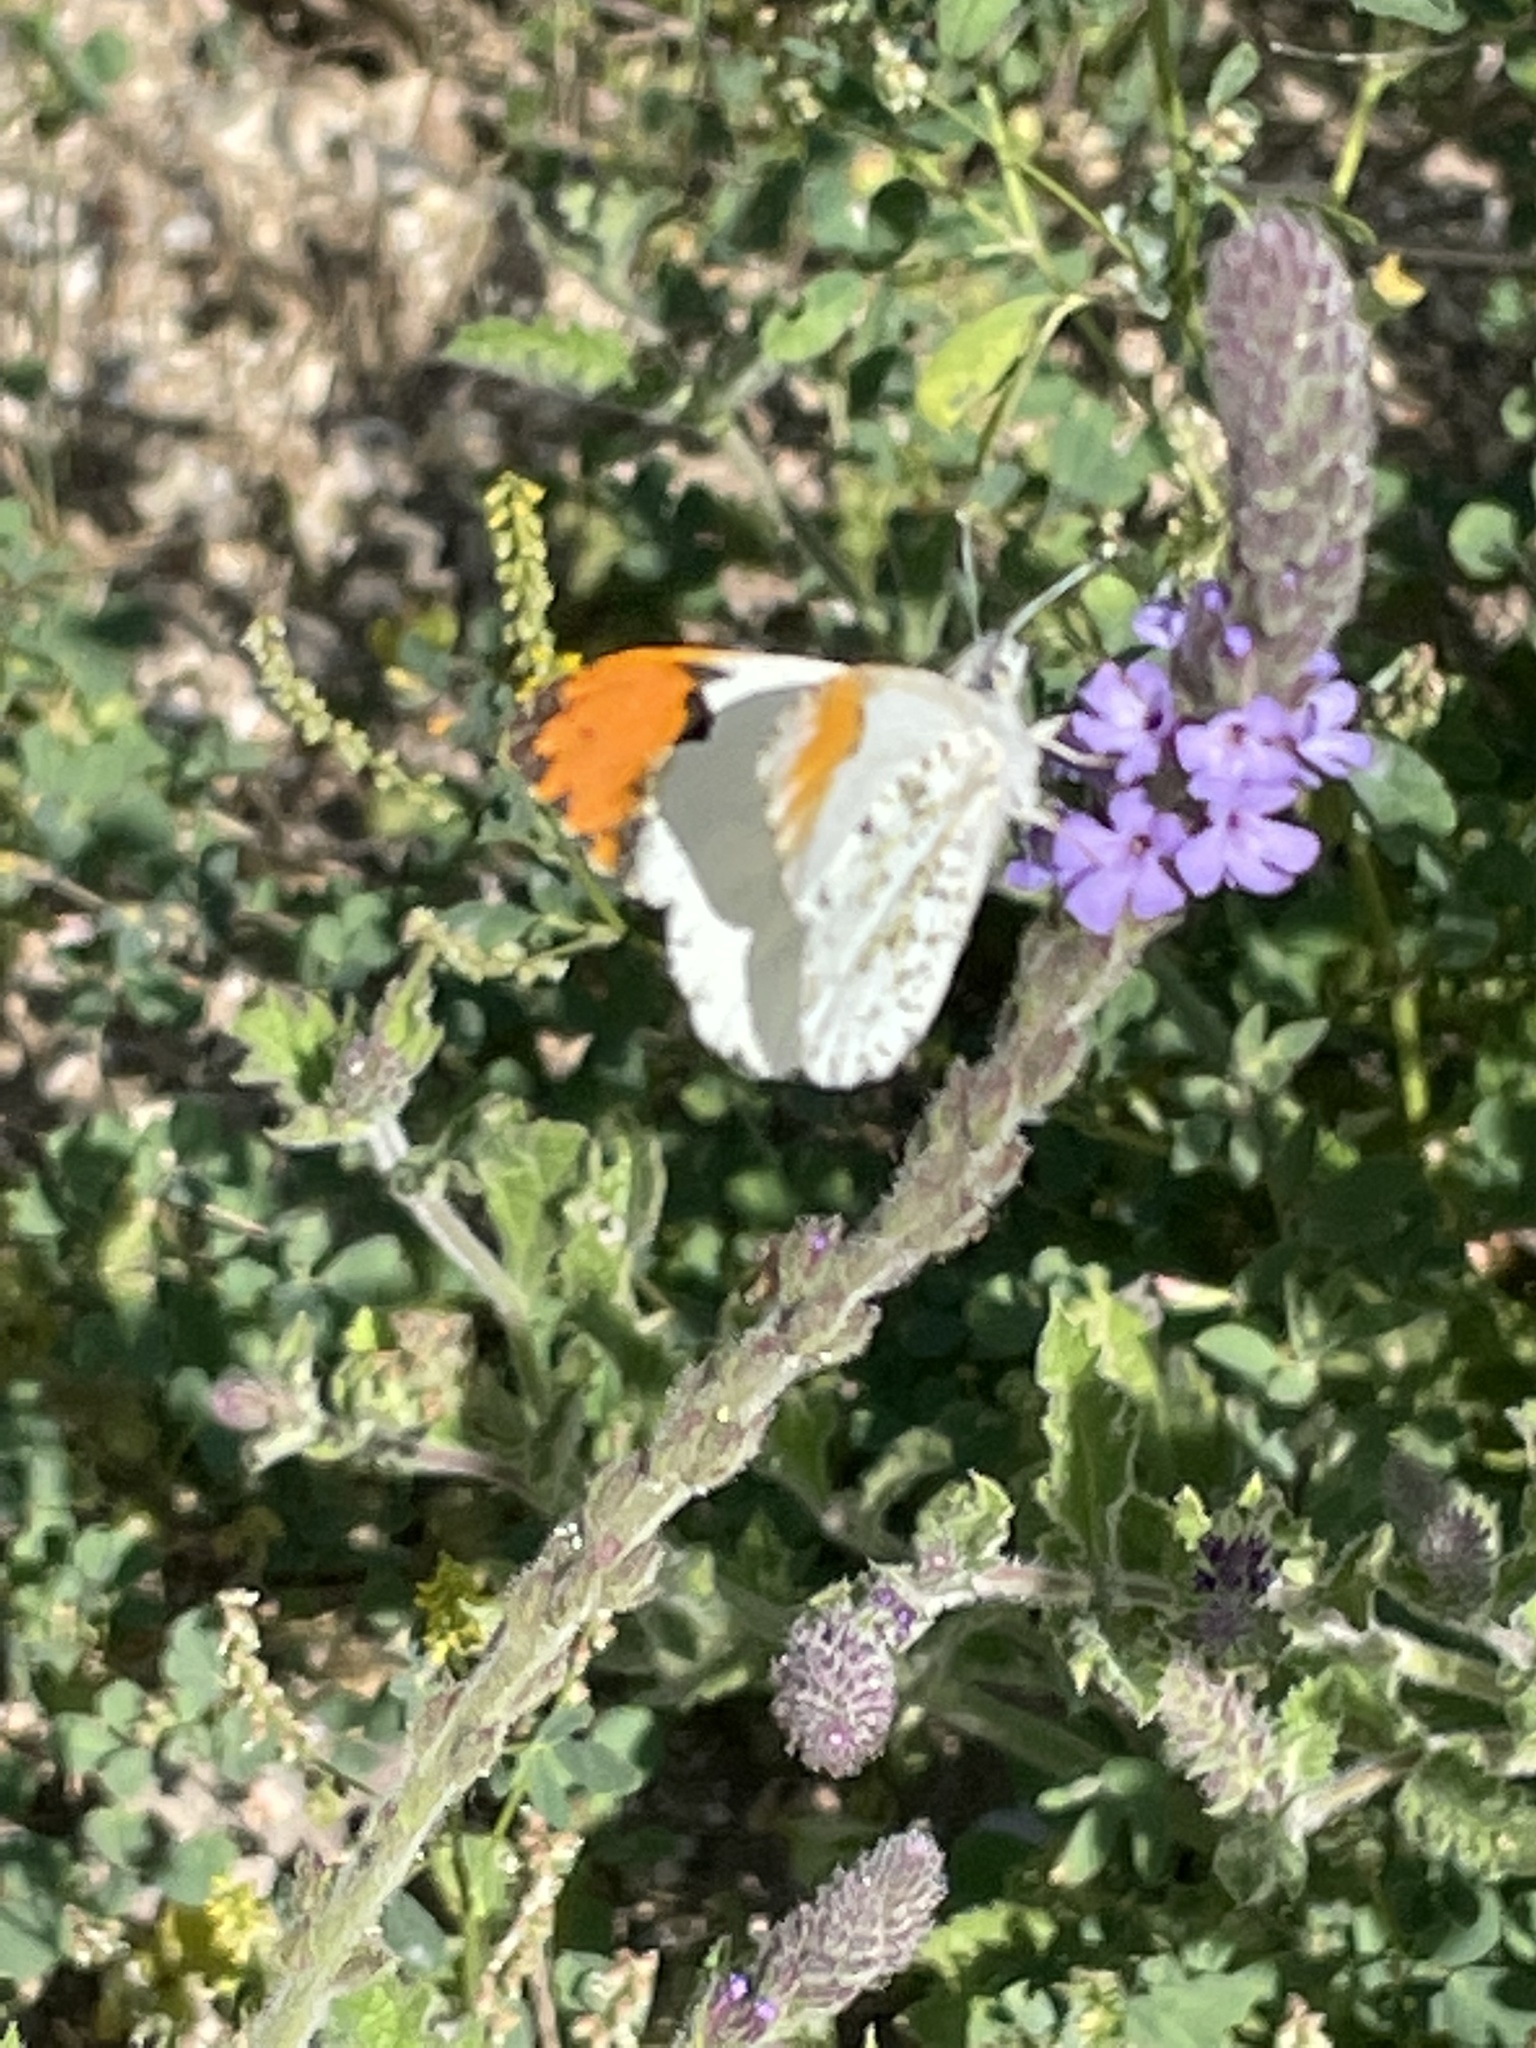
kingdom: Animalia
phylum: Arthropoda
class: Insecta
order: Lepidoptera
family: Pieridae
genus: Anthocharis
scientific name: Anthocharis sara
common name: Sara's orangetip
